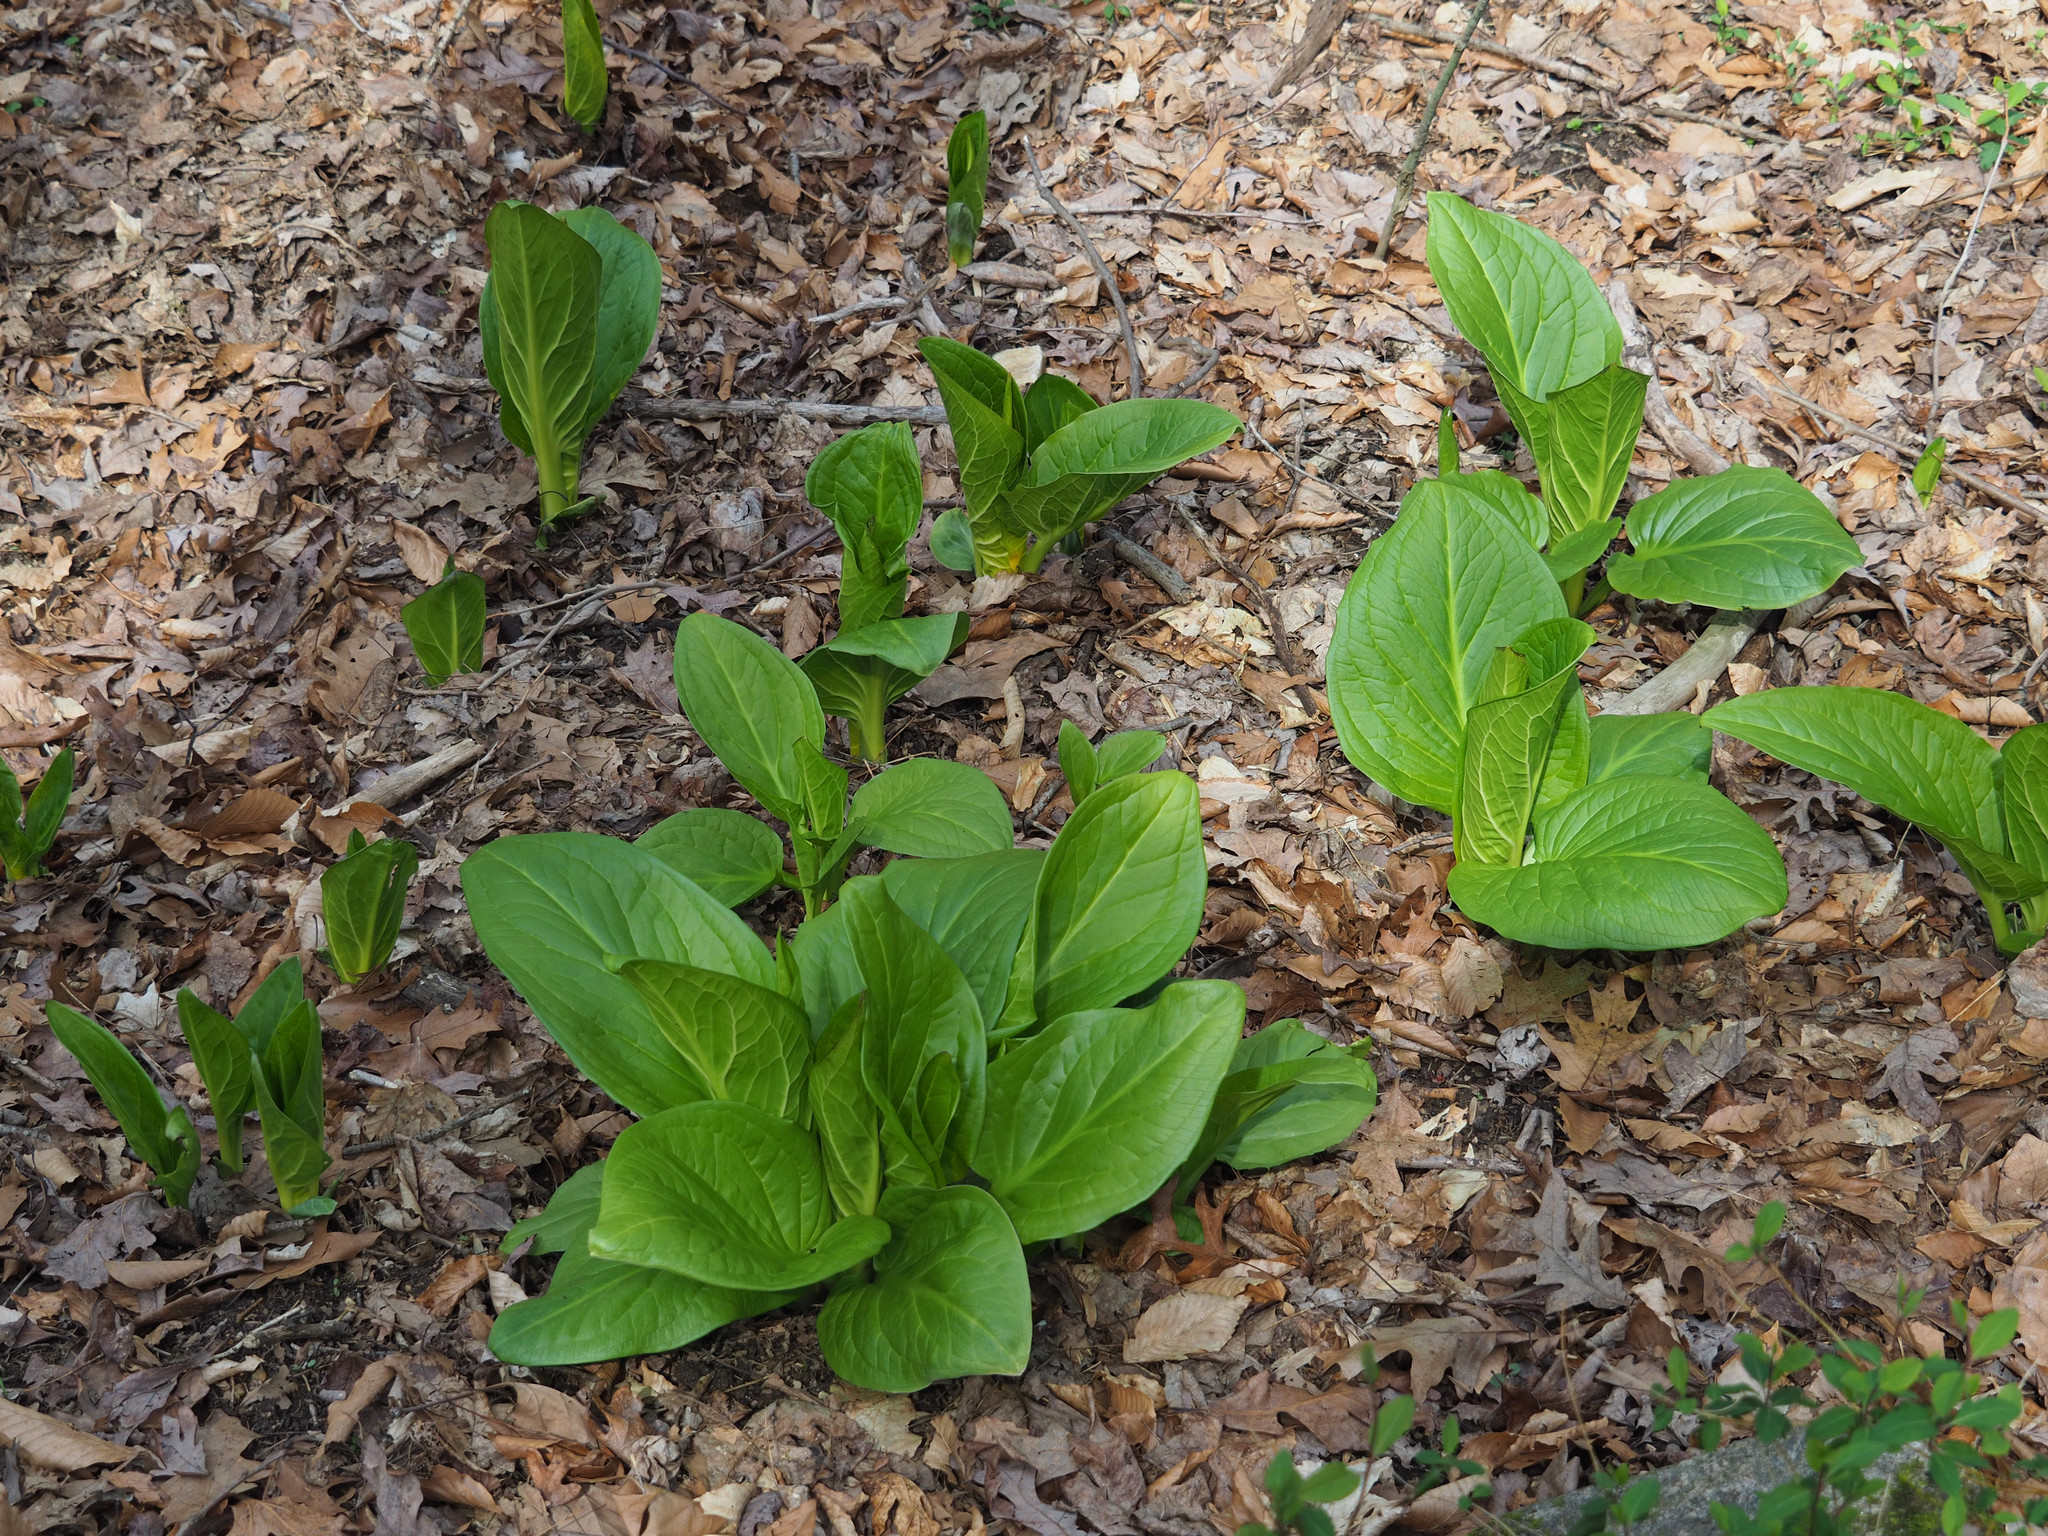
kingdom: Plantae
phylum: Tracheophyta
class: Liliopsida
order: Alismatales
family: Araceae
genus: Symplocarpus
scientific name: Symplocarpus foetidus
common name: Eastern skunk cabbage
